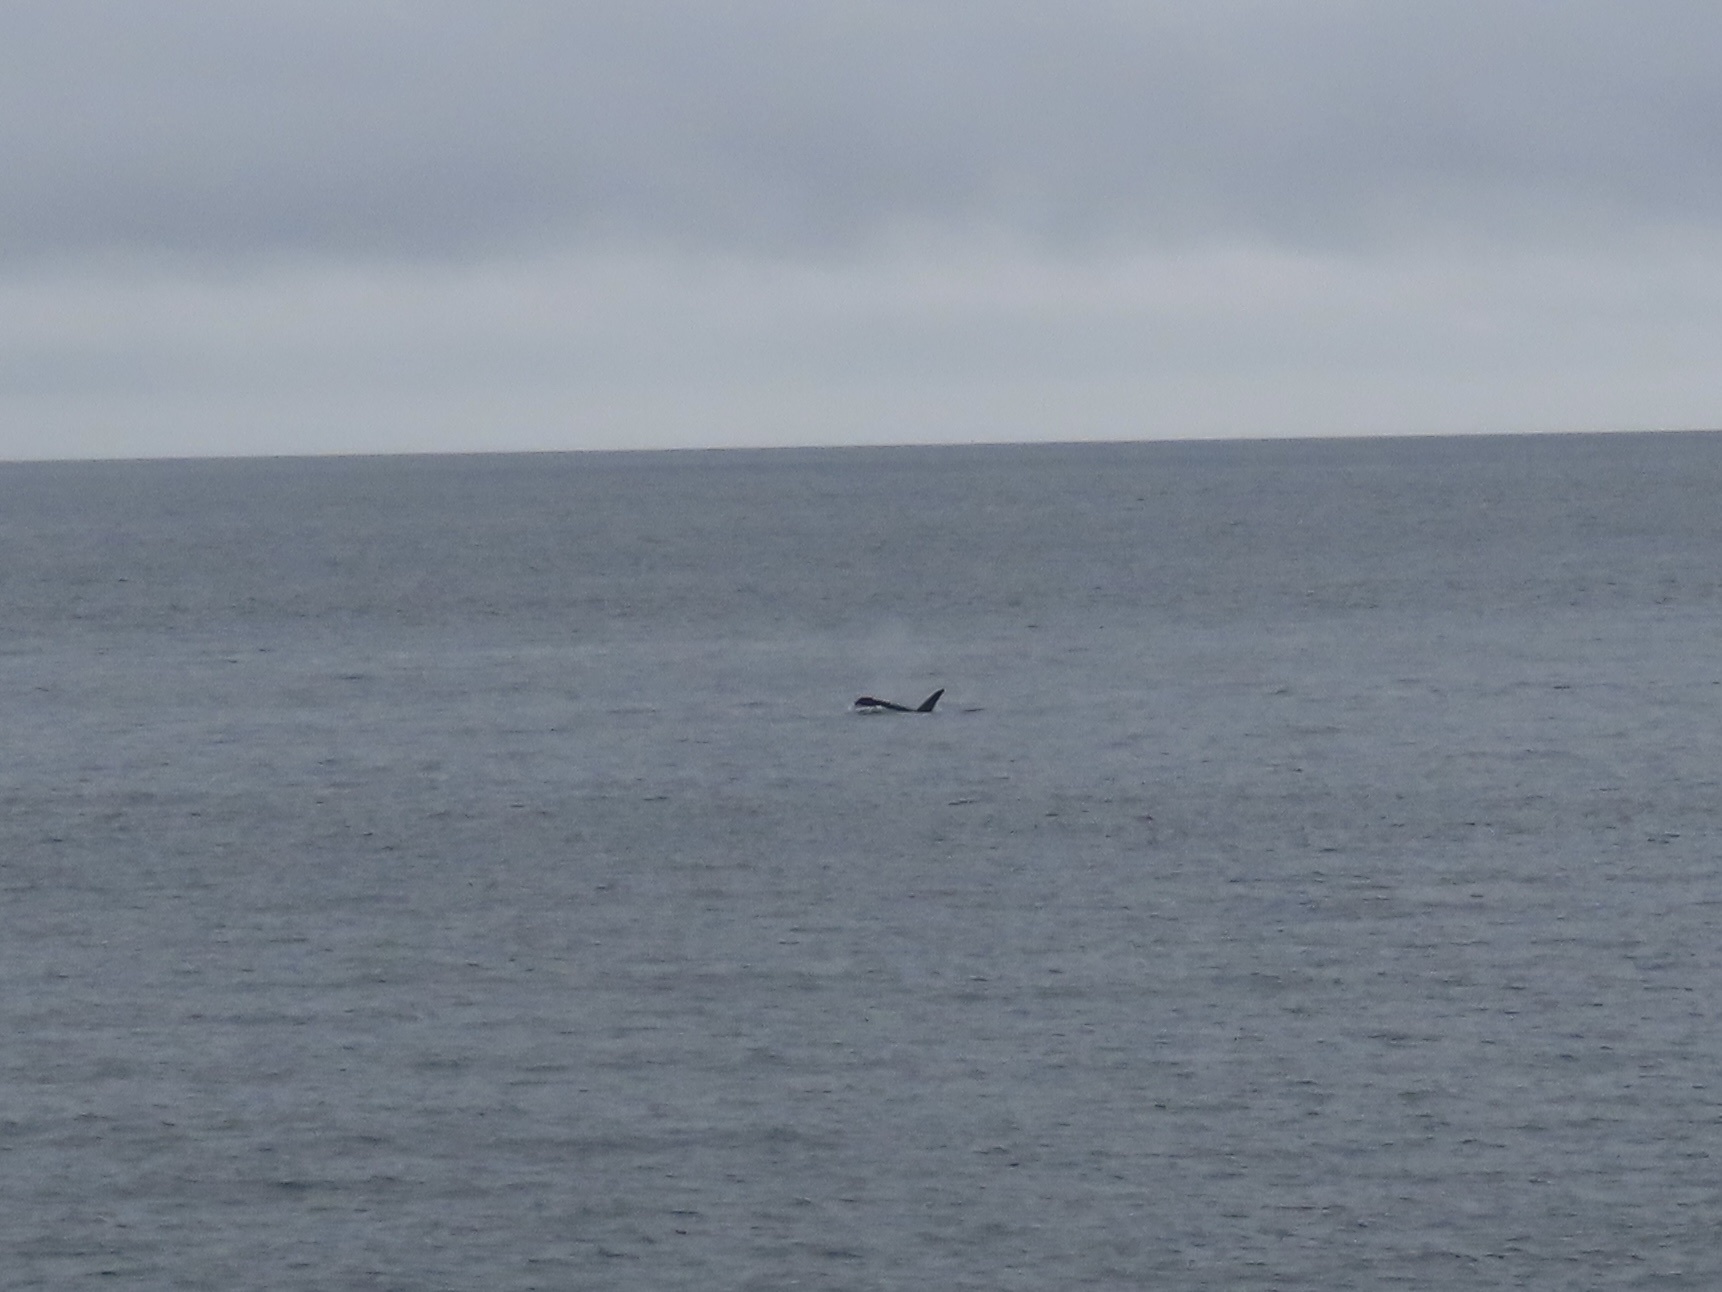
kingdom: Animalia
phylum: Chordata
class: Mammalia
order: Cetacea
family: Delphinidae
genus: Orcinus
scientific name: Orcinus orca
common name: Killer whale
